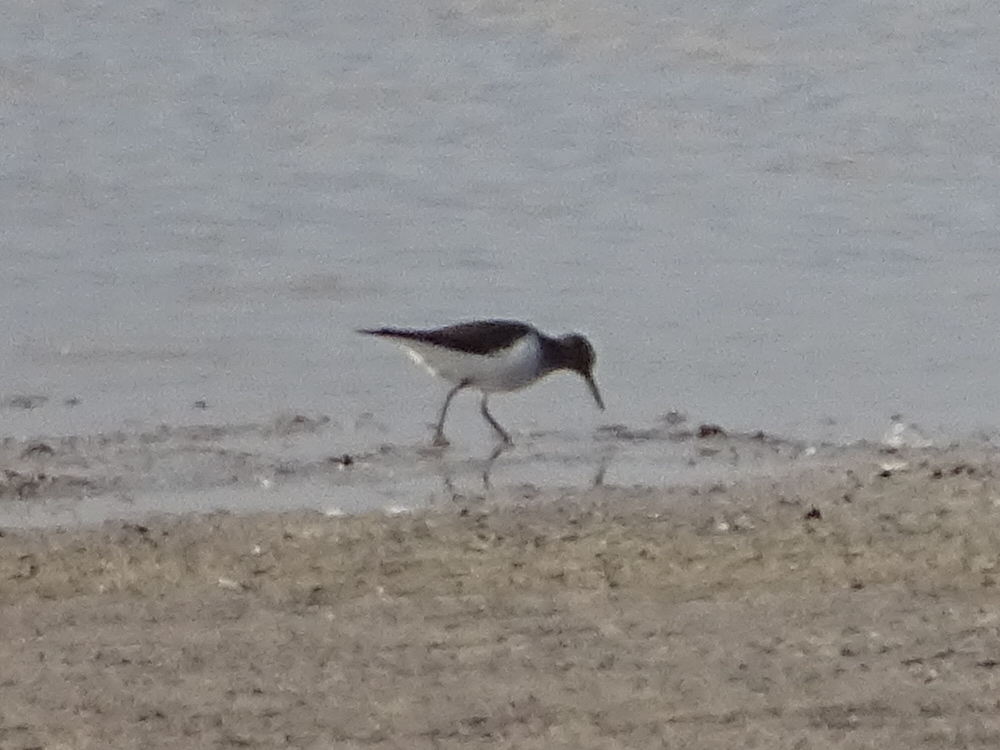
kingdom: Animalia
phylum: Chordata
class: Aves
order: Charadriiformes
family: Scolopacidae
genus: Actitis
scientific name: Actitis hypoleucos
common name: Common sandpiper
